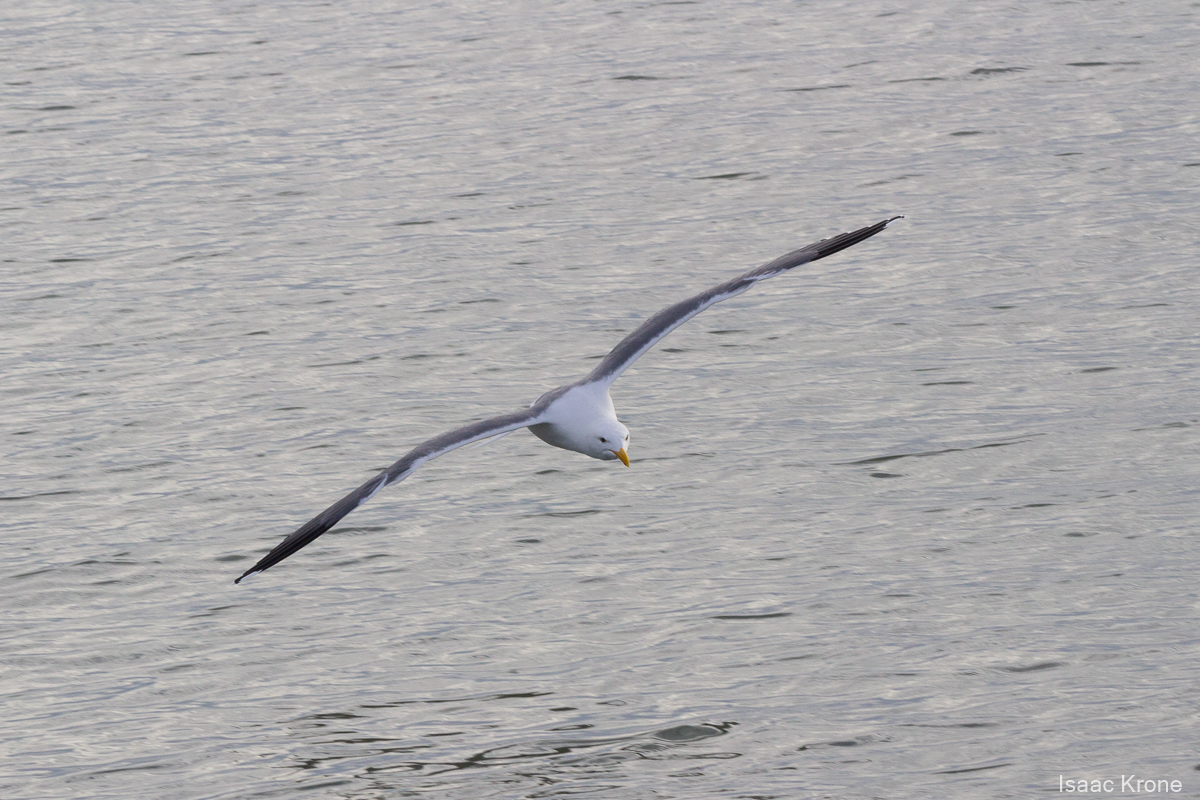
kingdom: Animalia
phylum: Chordata
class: Aves
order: Charadriiformes
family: Laridae
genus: Larus
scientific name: Larus occidentalis
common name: Western gull
